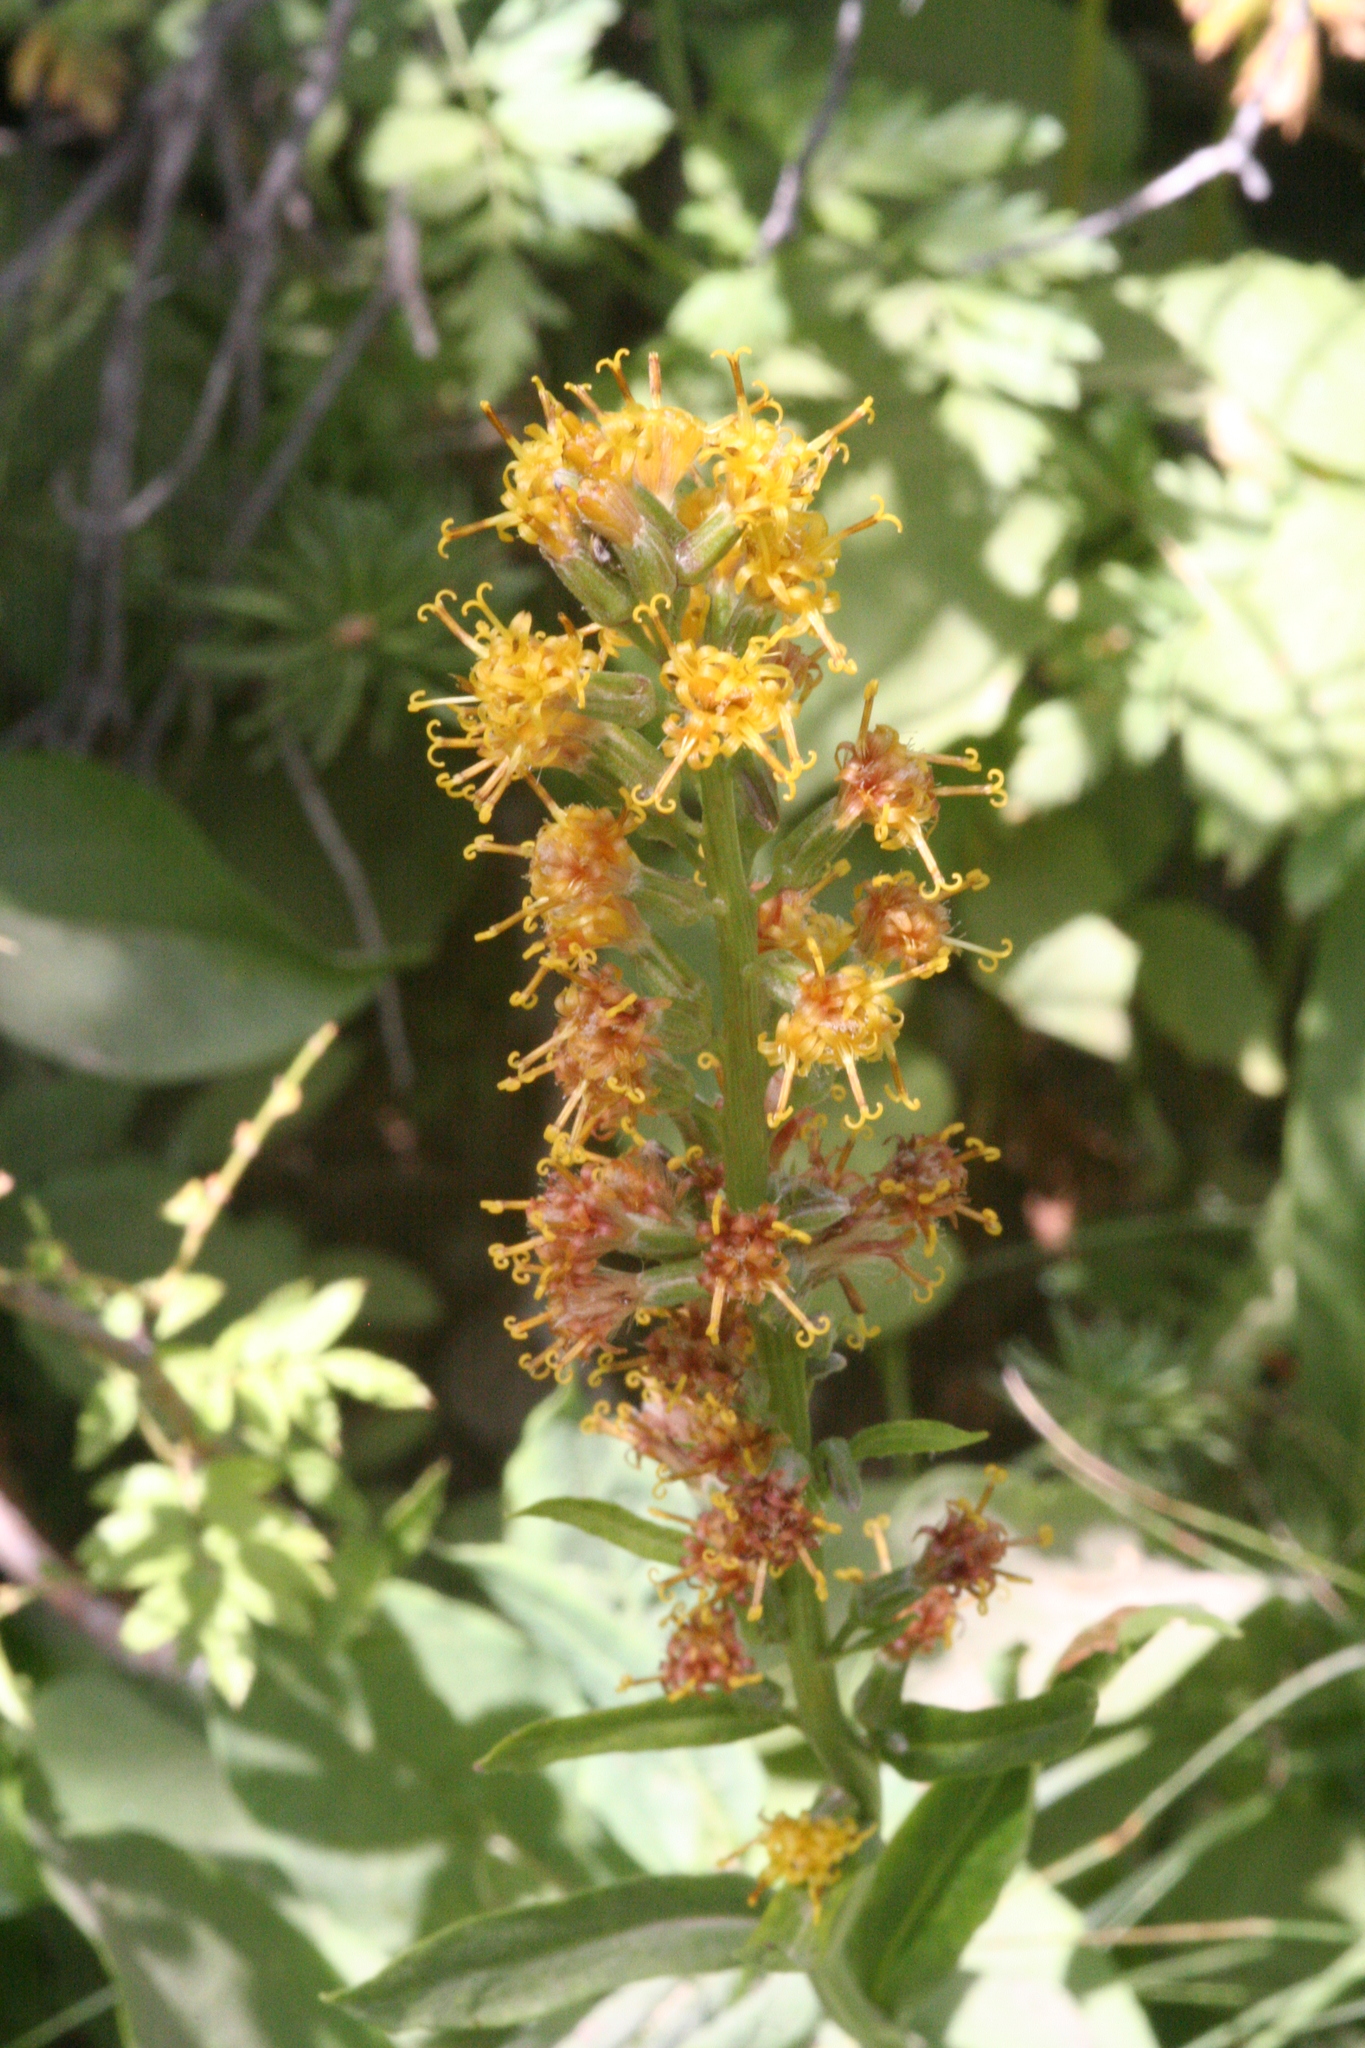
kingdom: Plantae
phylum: Tracheophyta
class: Magnoliopsida
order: Asterales
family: Asteraceae
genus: Rainiera
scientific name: Rainiera stricta
